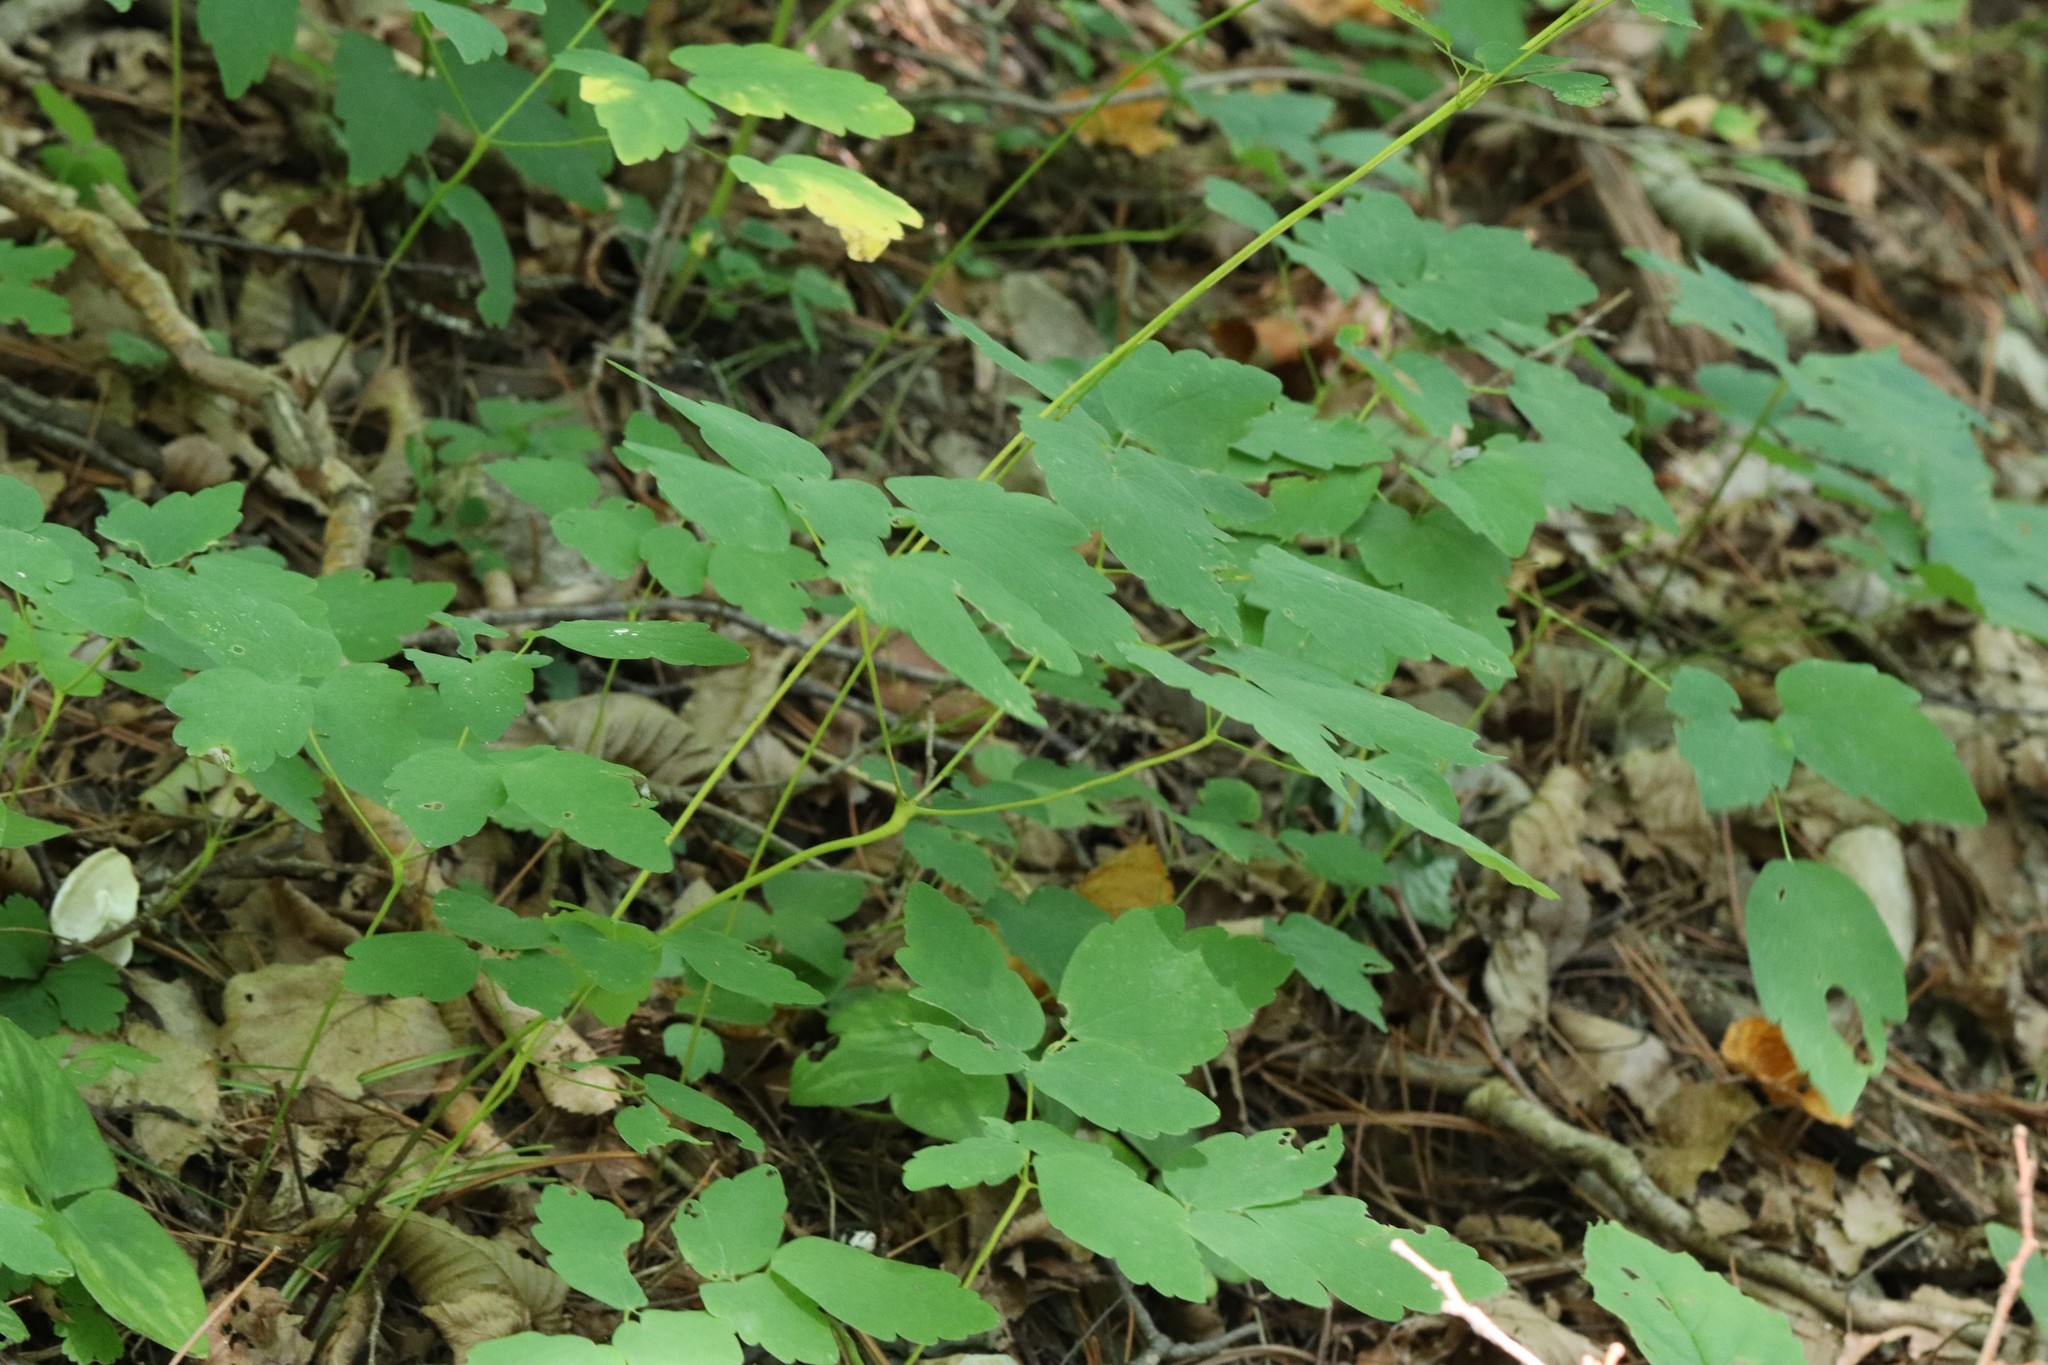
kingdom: Plantae
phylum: Tracheophyta
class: Magnoliopsida
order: Ranunculales
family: Ranunculaceae
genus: Thalictrum
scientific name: Thalictrum tuberiferum
